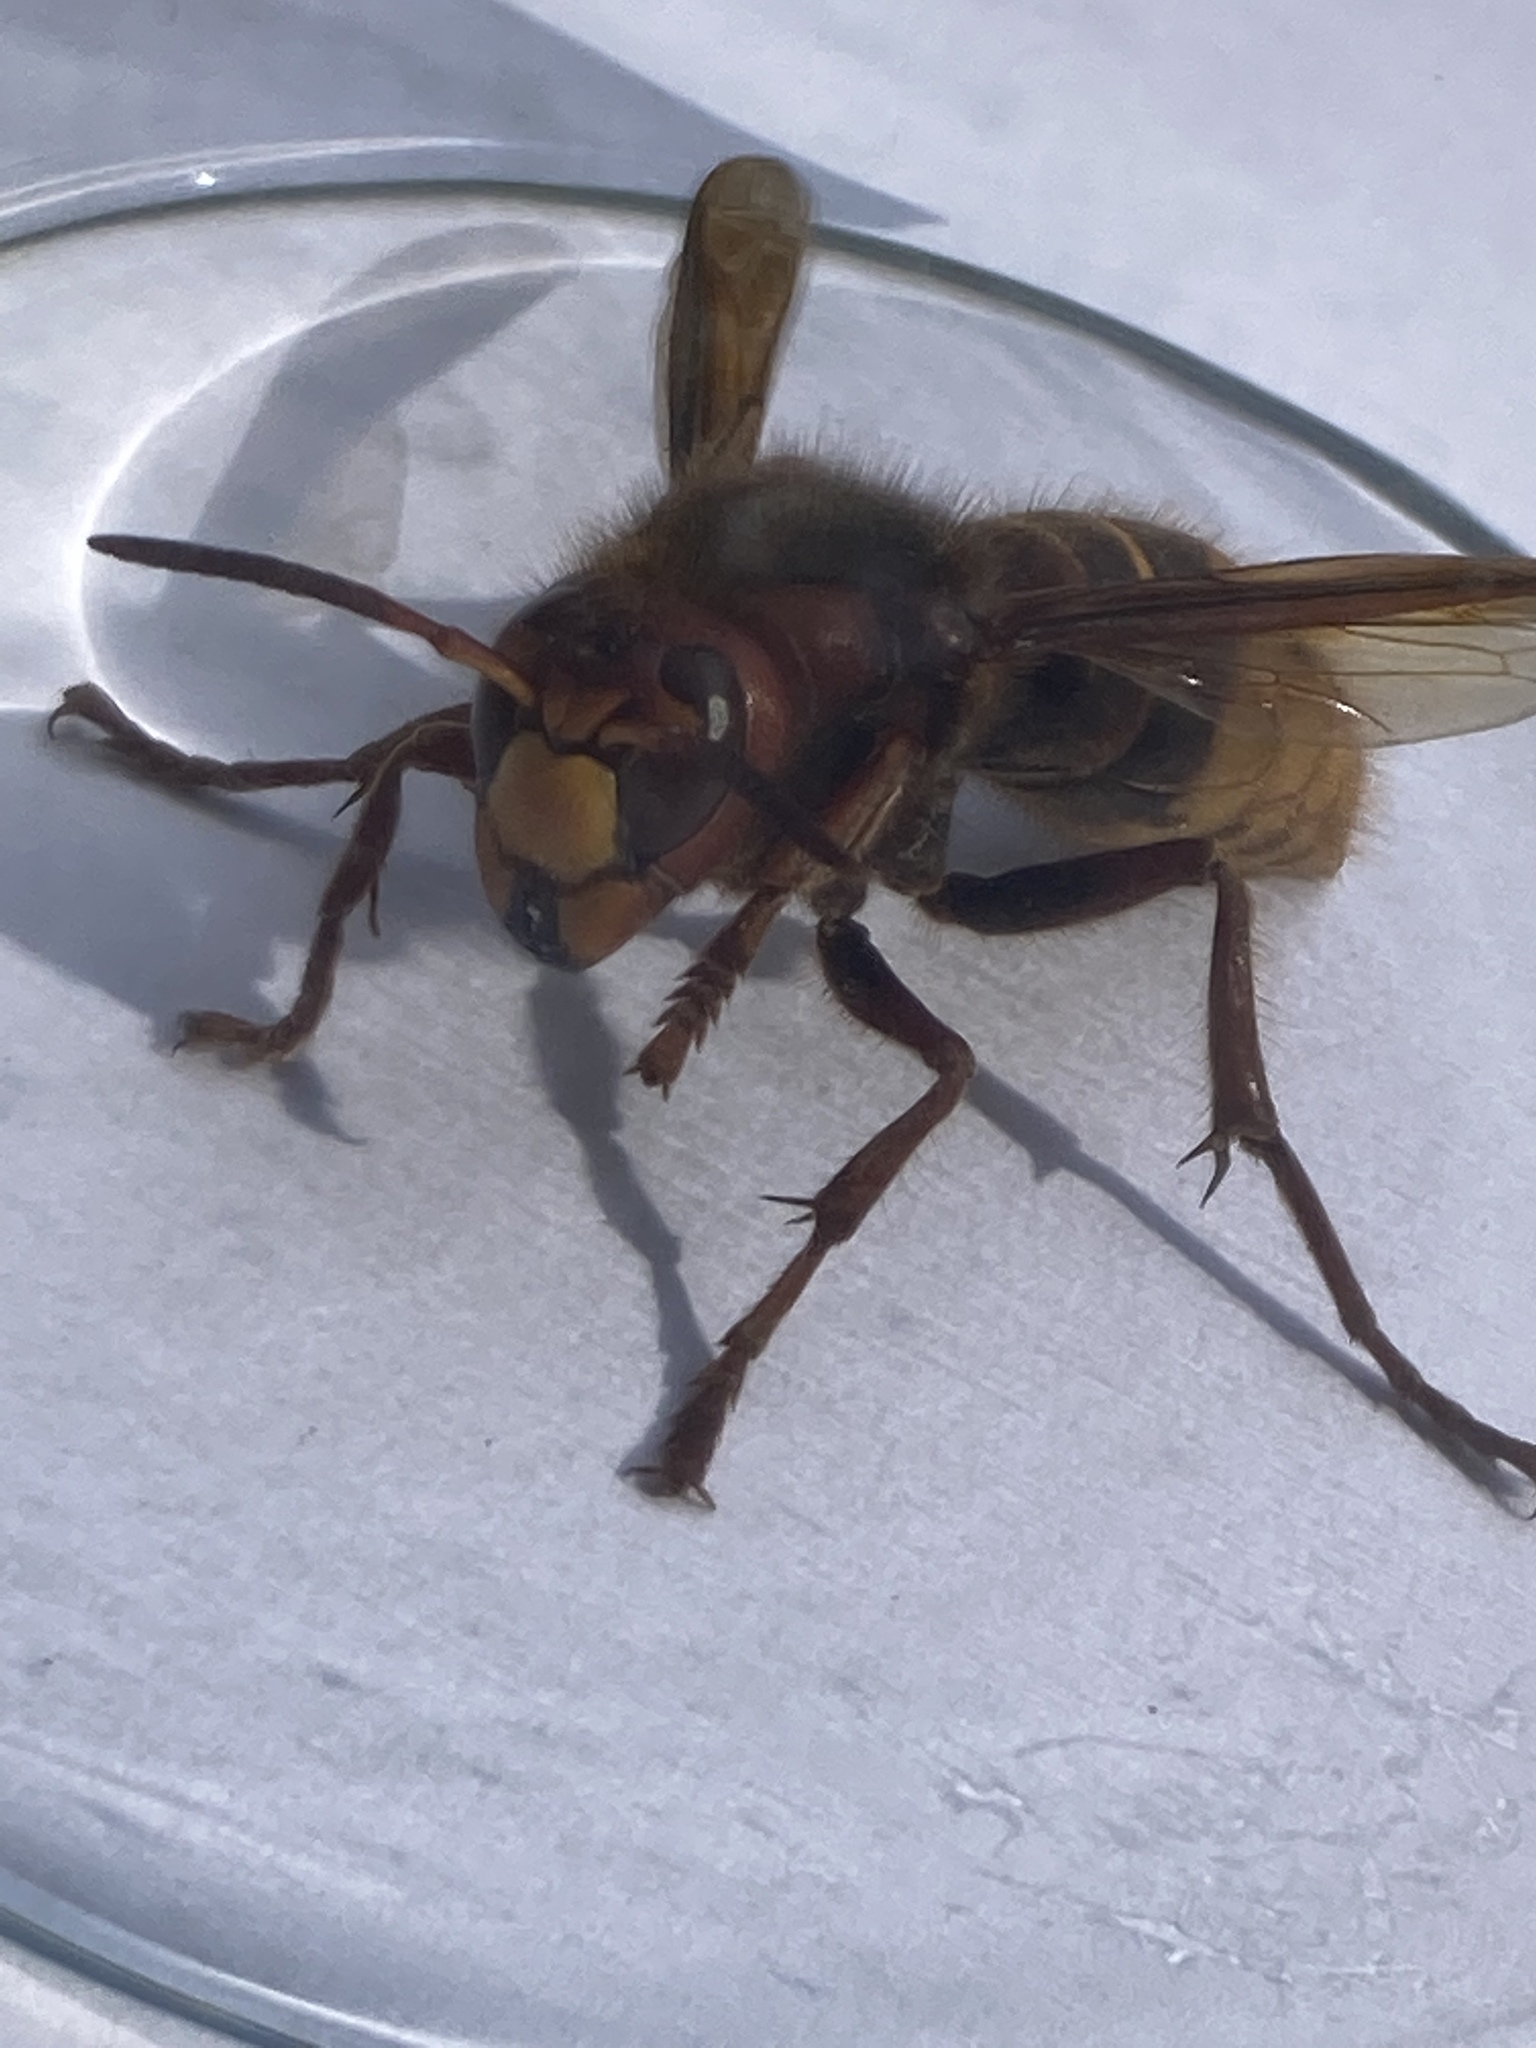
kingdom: Animalia
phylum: Arthropoda
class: Insecta
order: Hymenoptera
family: Vespidae
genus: Vespa
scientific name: Vespa crabro
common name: Hornet
